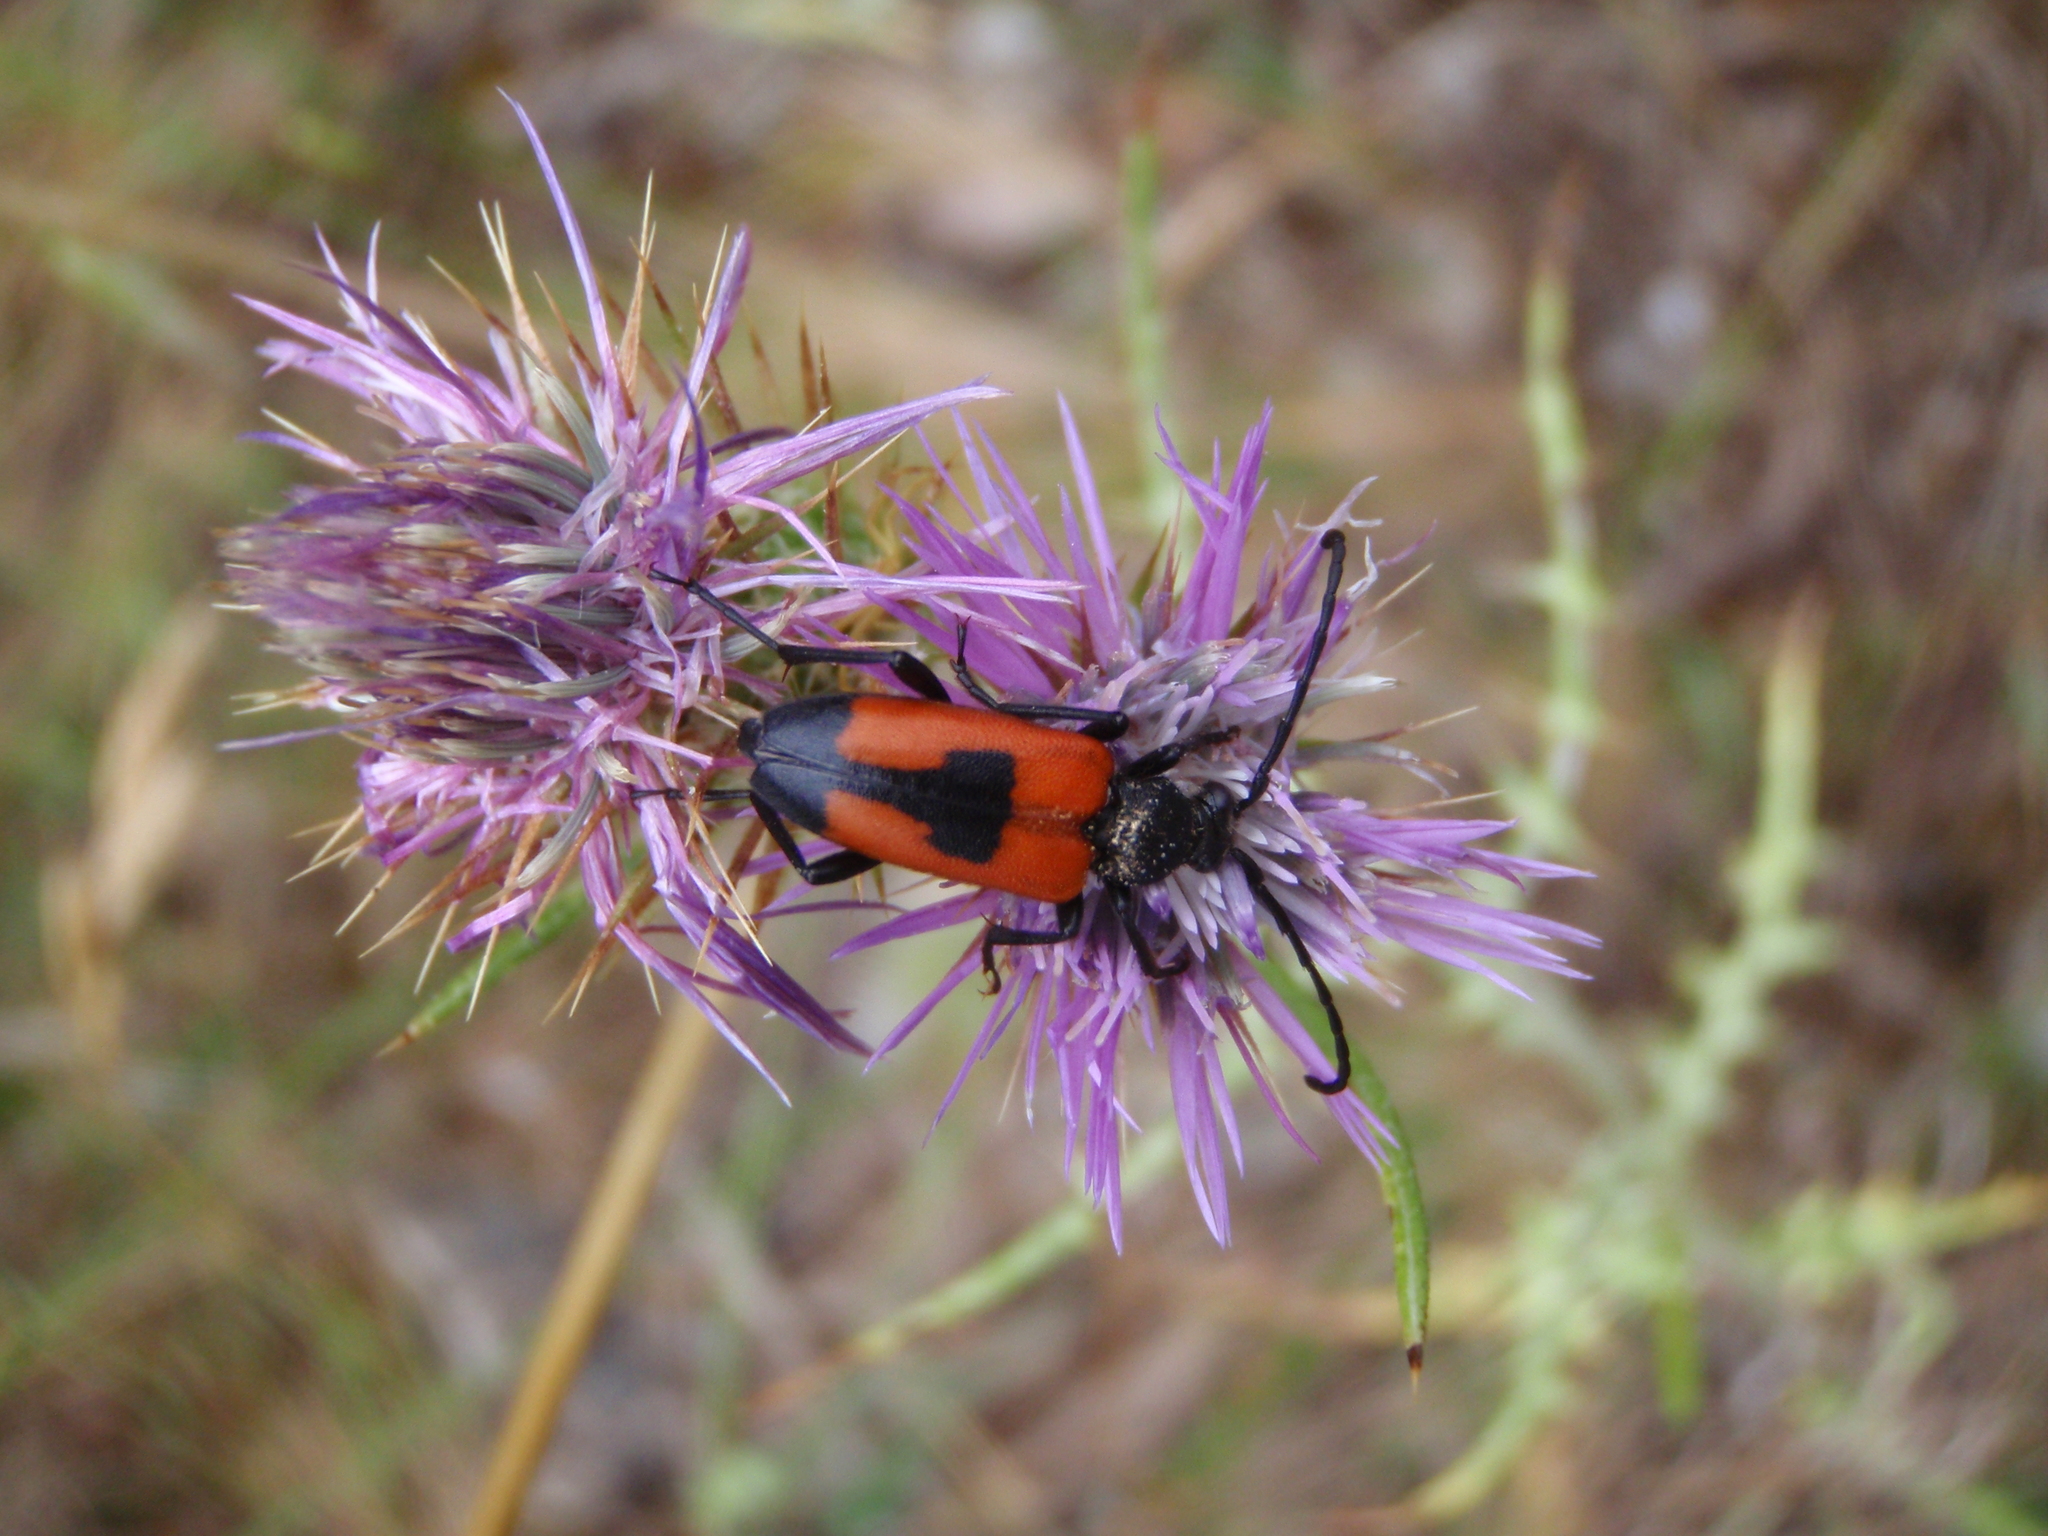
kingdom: Animalia
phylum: Arthropoda
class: Insecta
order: Coleoptera
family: Cerambycidae
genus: Stictoleptura
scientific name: Stictoleptura cordigera
